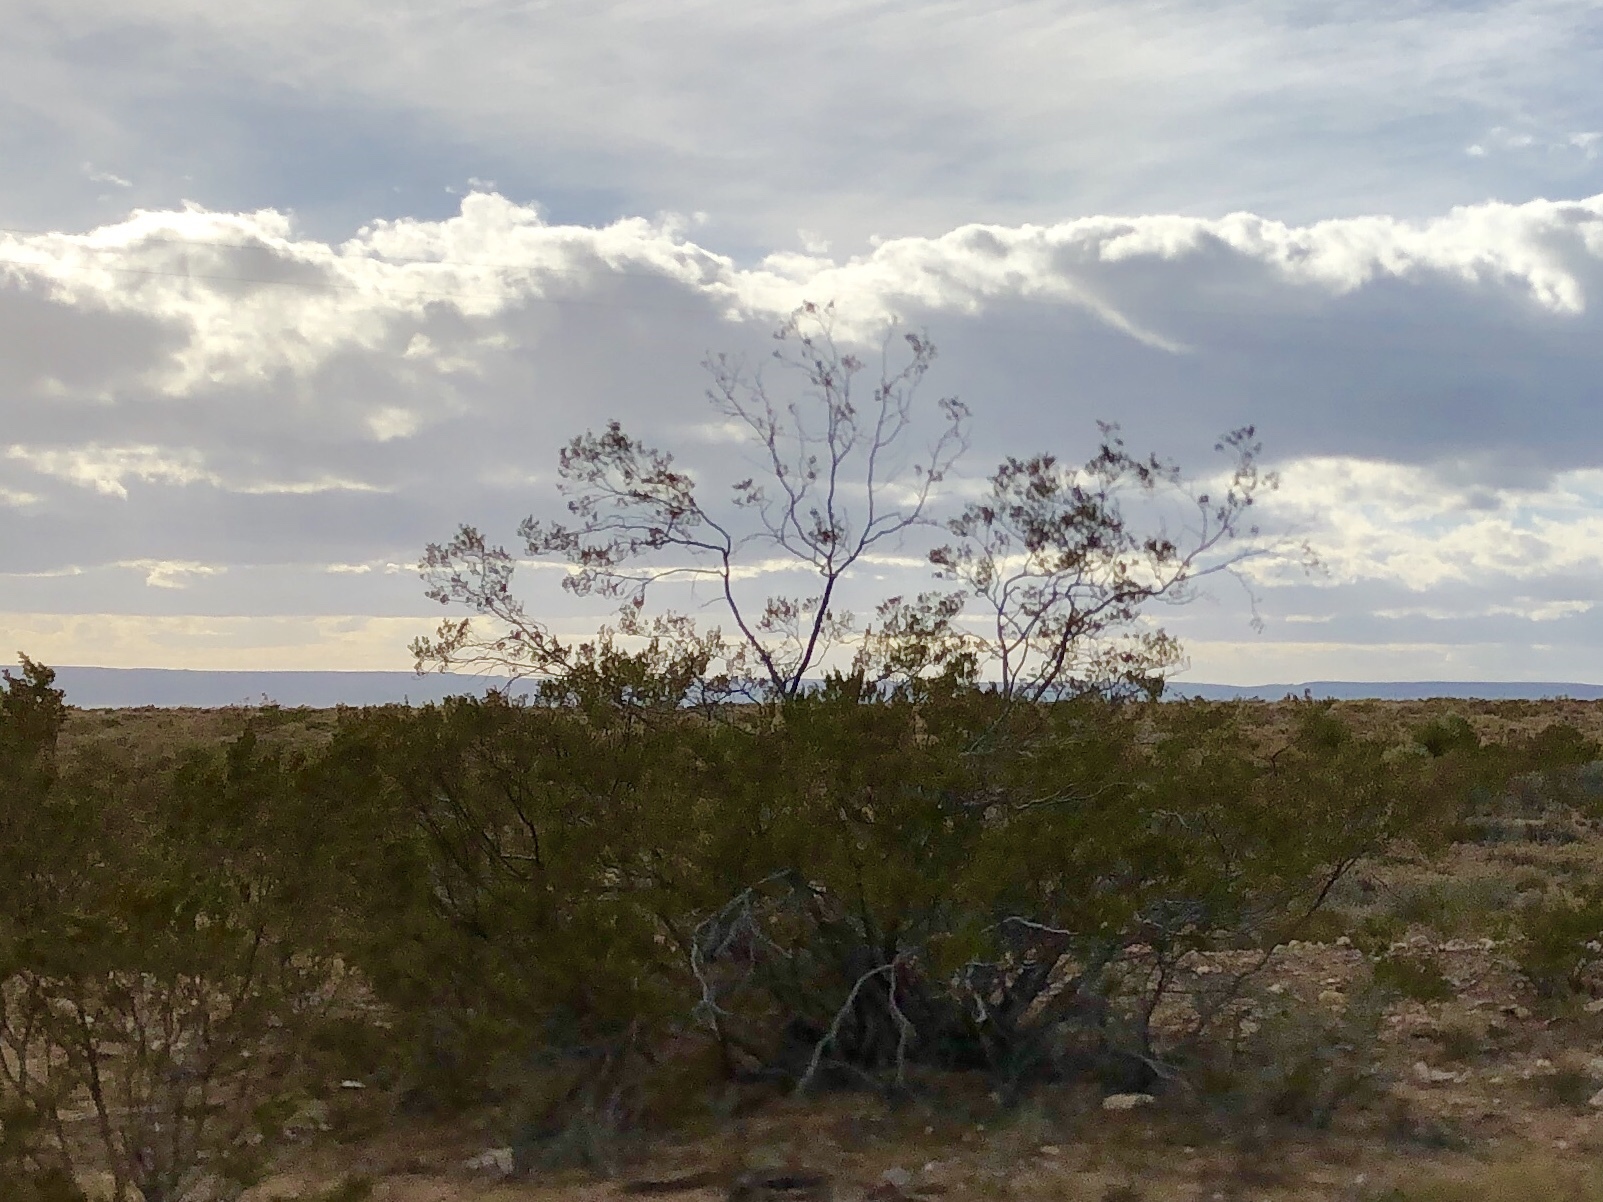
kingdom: Plantae
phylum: Tracheophyta
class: Magnoliopsida
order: Zygophyllales
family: Zygophyllaceae
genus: Larrea
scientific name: Larrea tridentata
